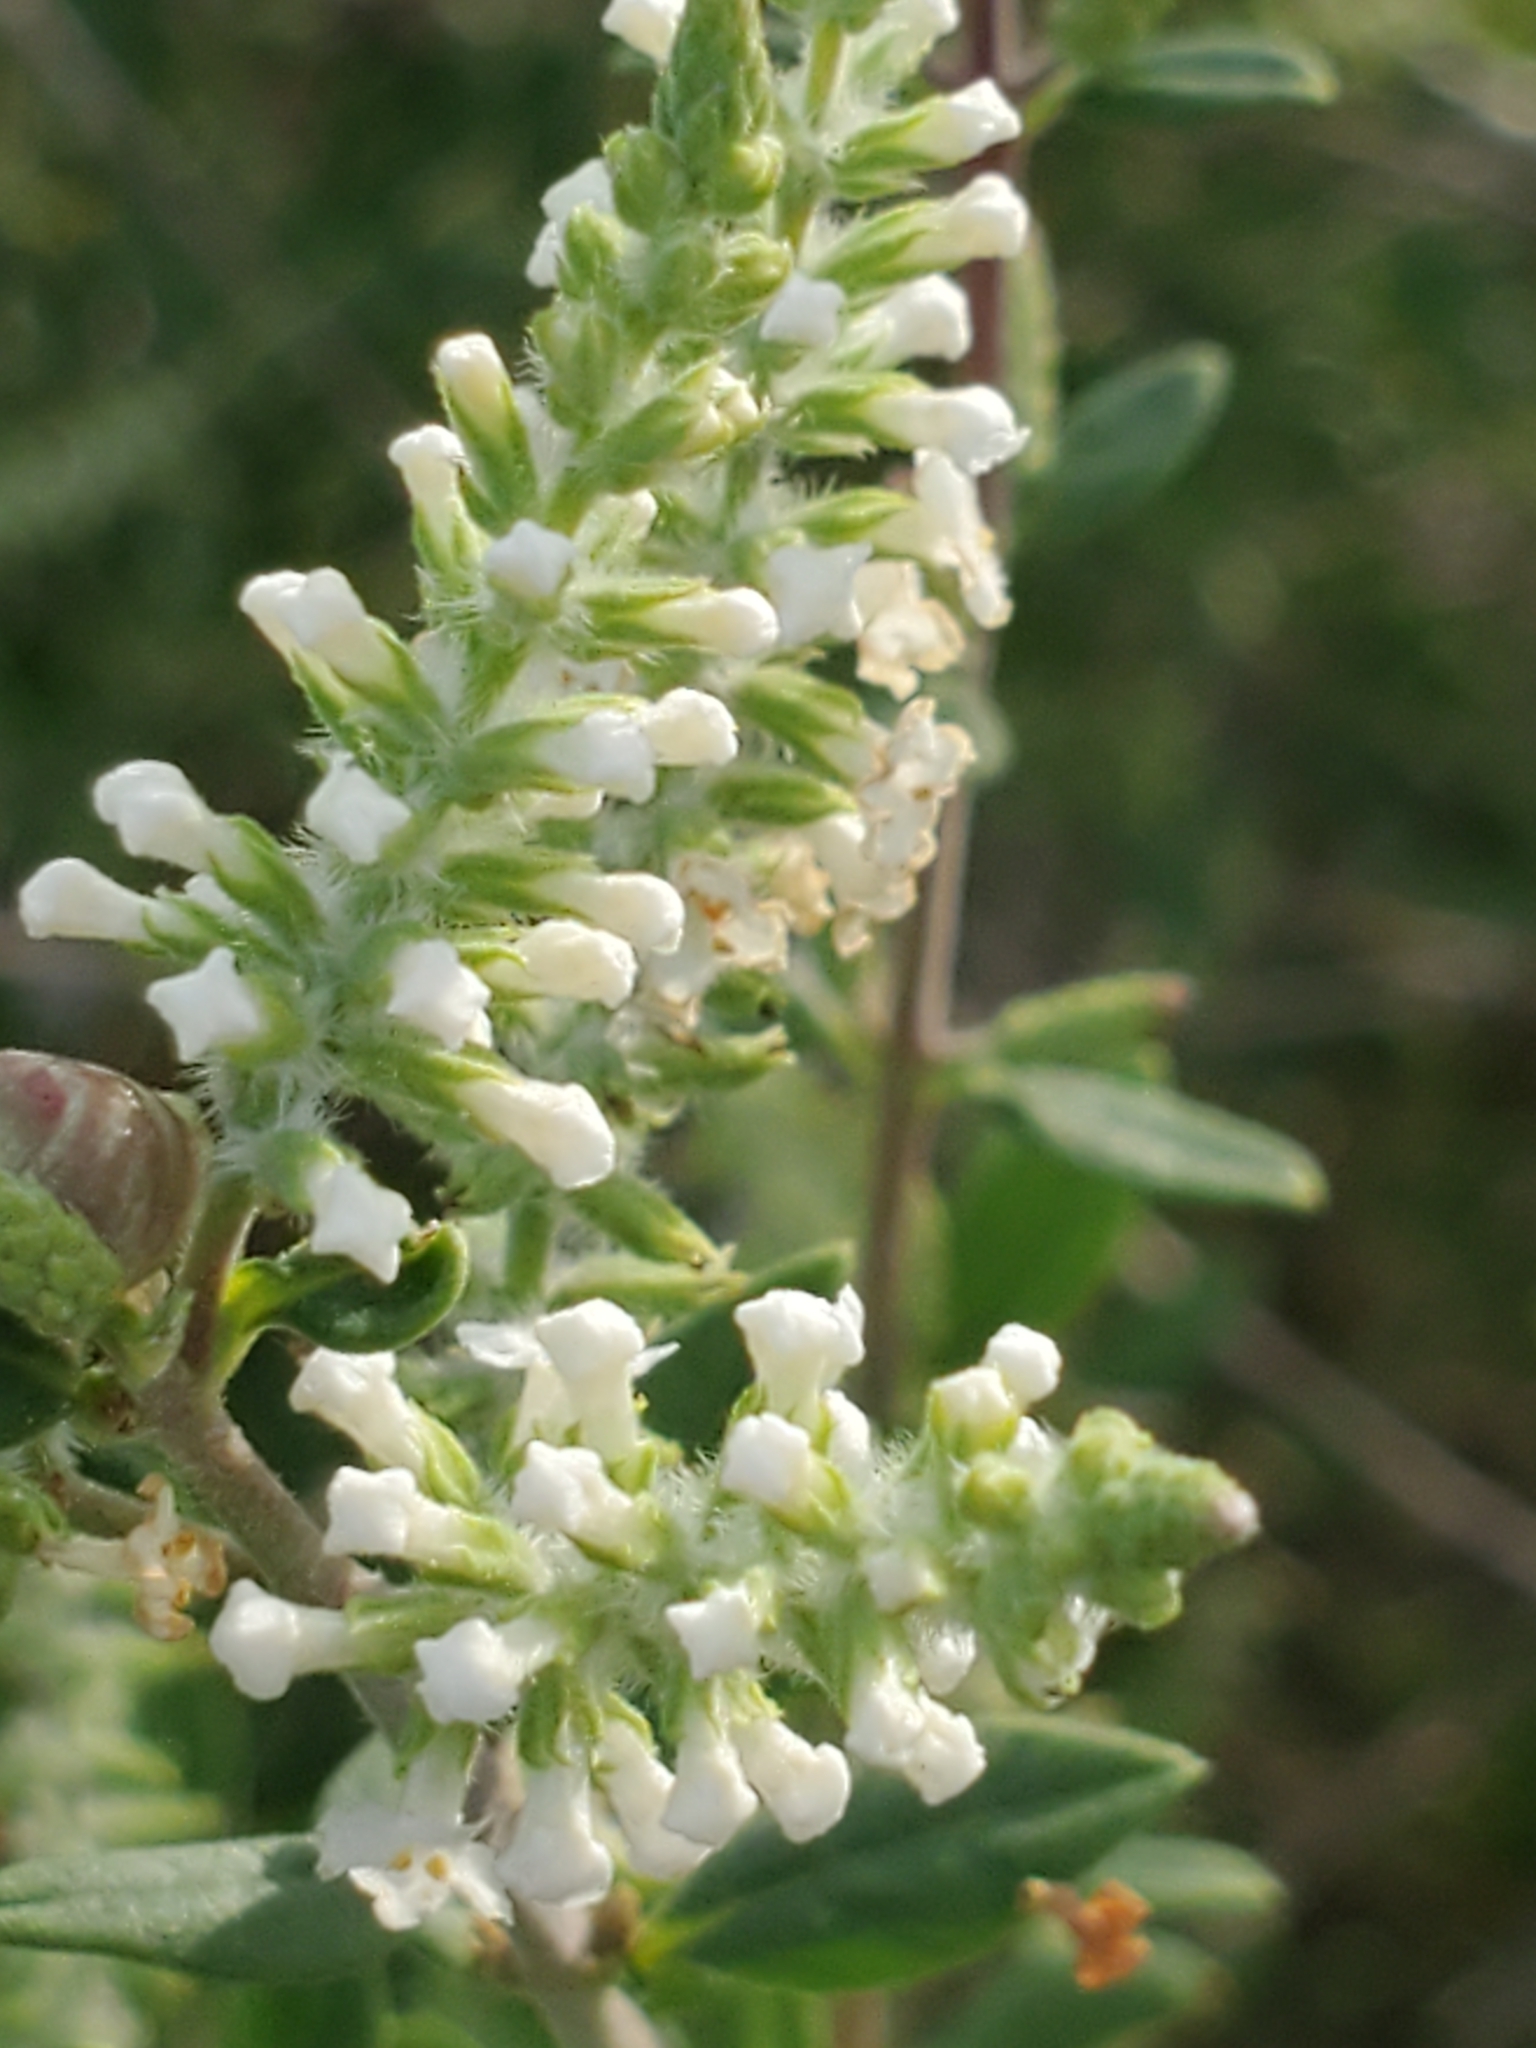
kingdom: Plantae
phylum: Tracheophyta
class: Magnoliopsida
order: Lamiales
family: Verbenaceae
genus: Aloysia
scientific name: Aloysia gratissima
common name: Common bee-brush
